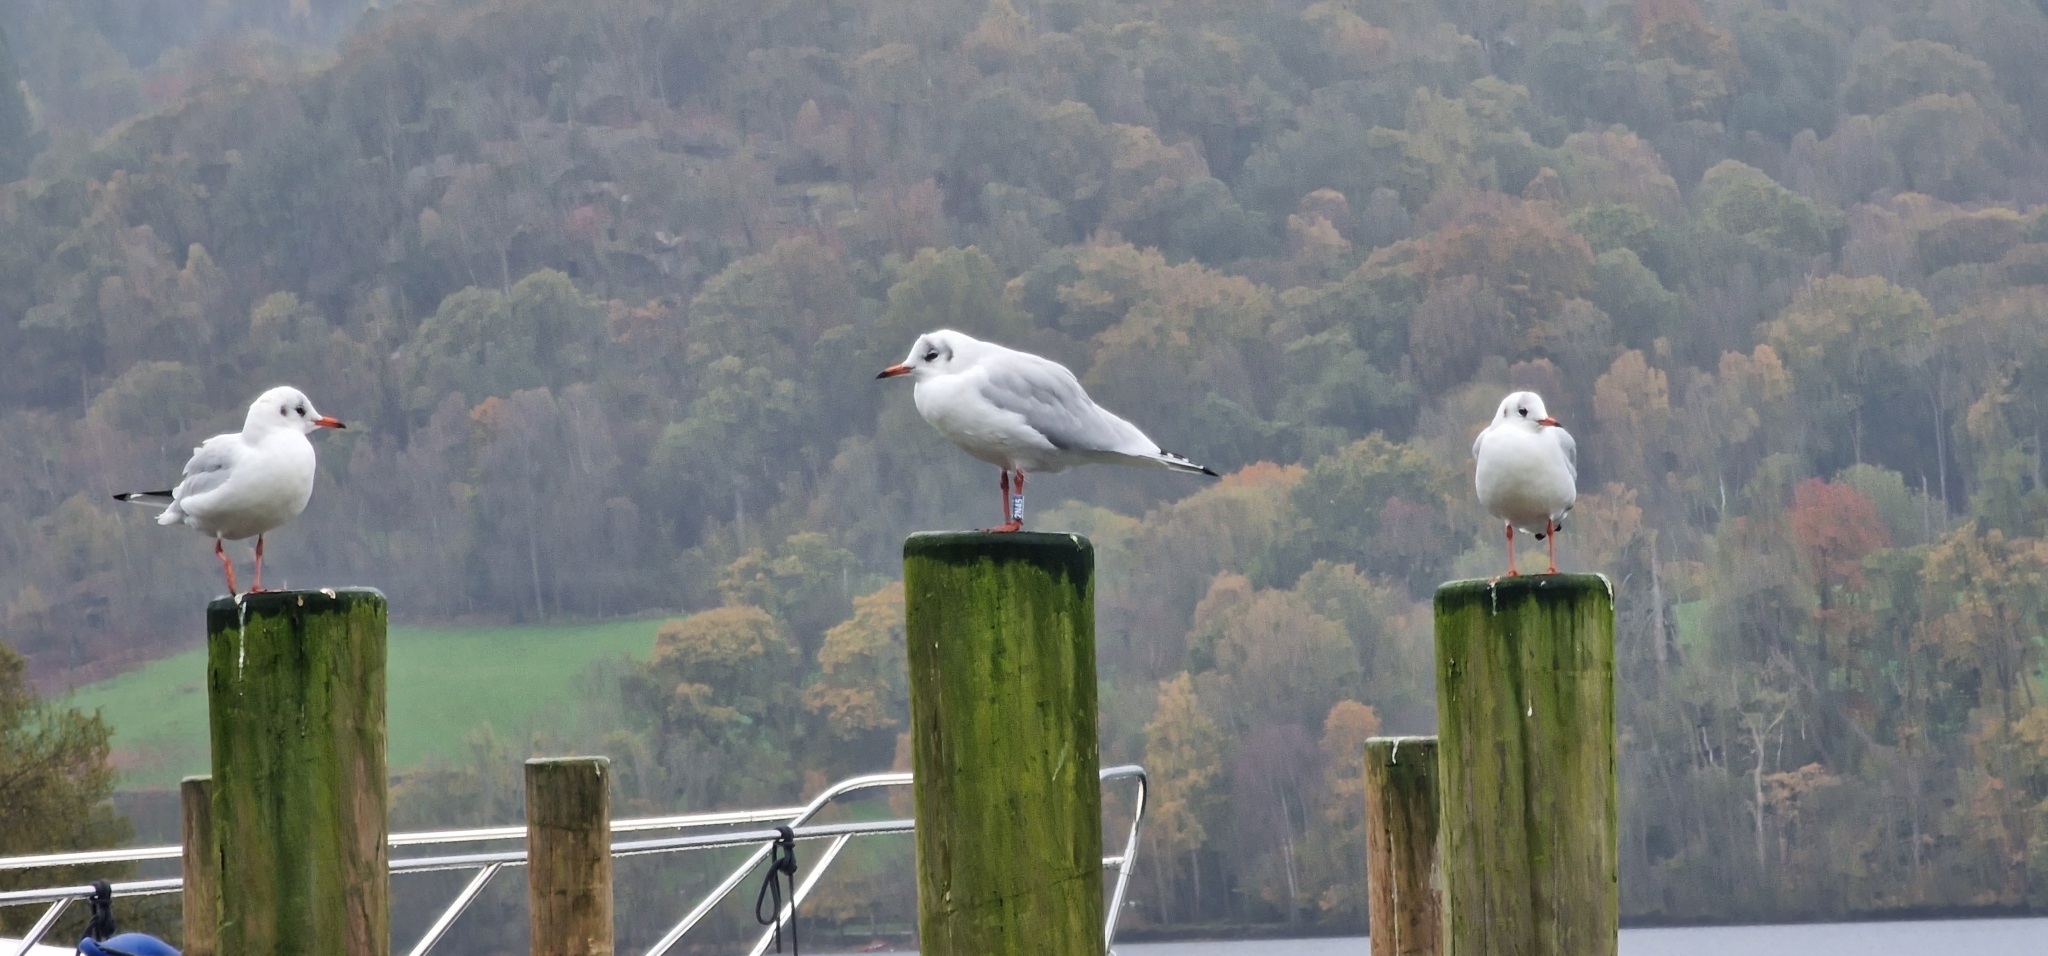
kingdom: Animalia
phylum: Chordata
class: Aves
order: Charadriiformes
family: Laridae
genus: Chroicocephalus
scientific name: Chroicocephalus ridibundus
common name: Black-headed gull
